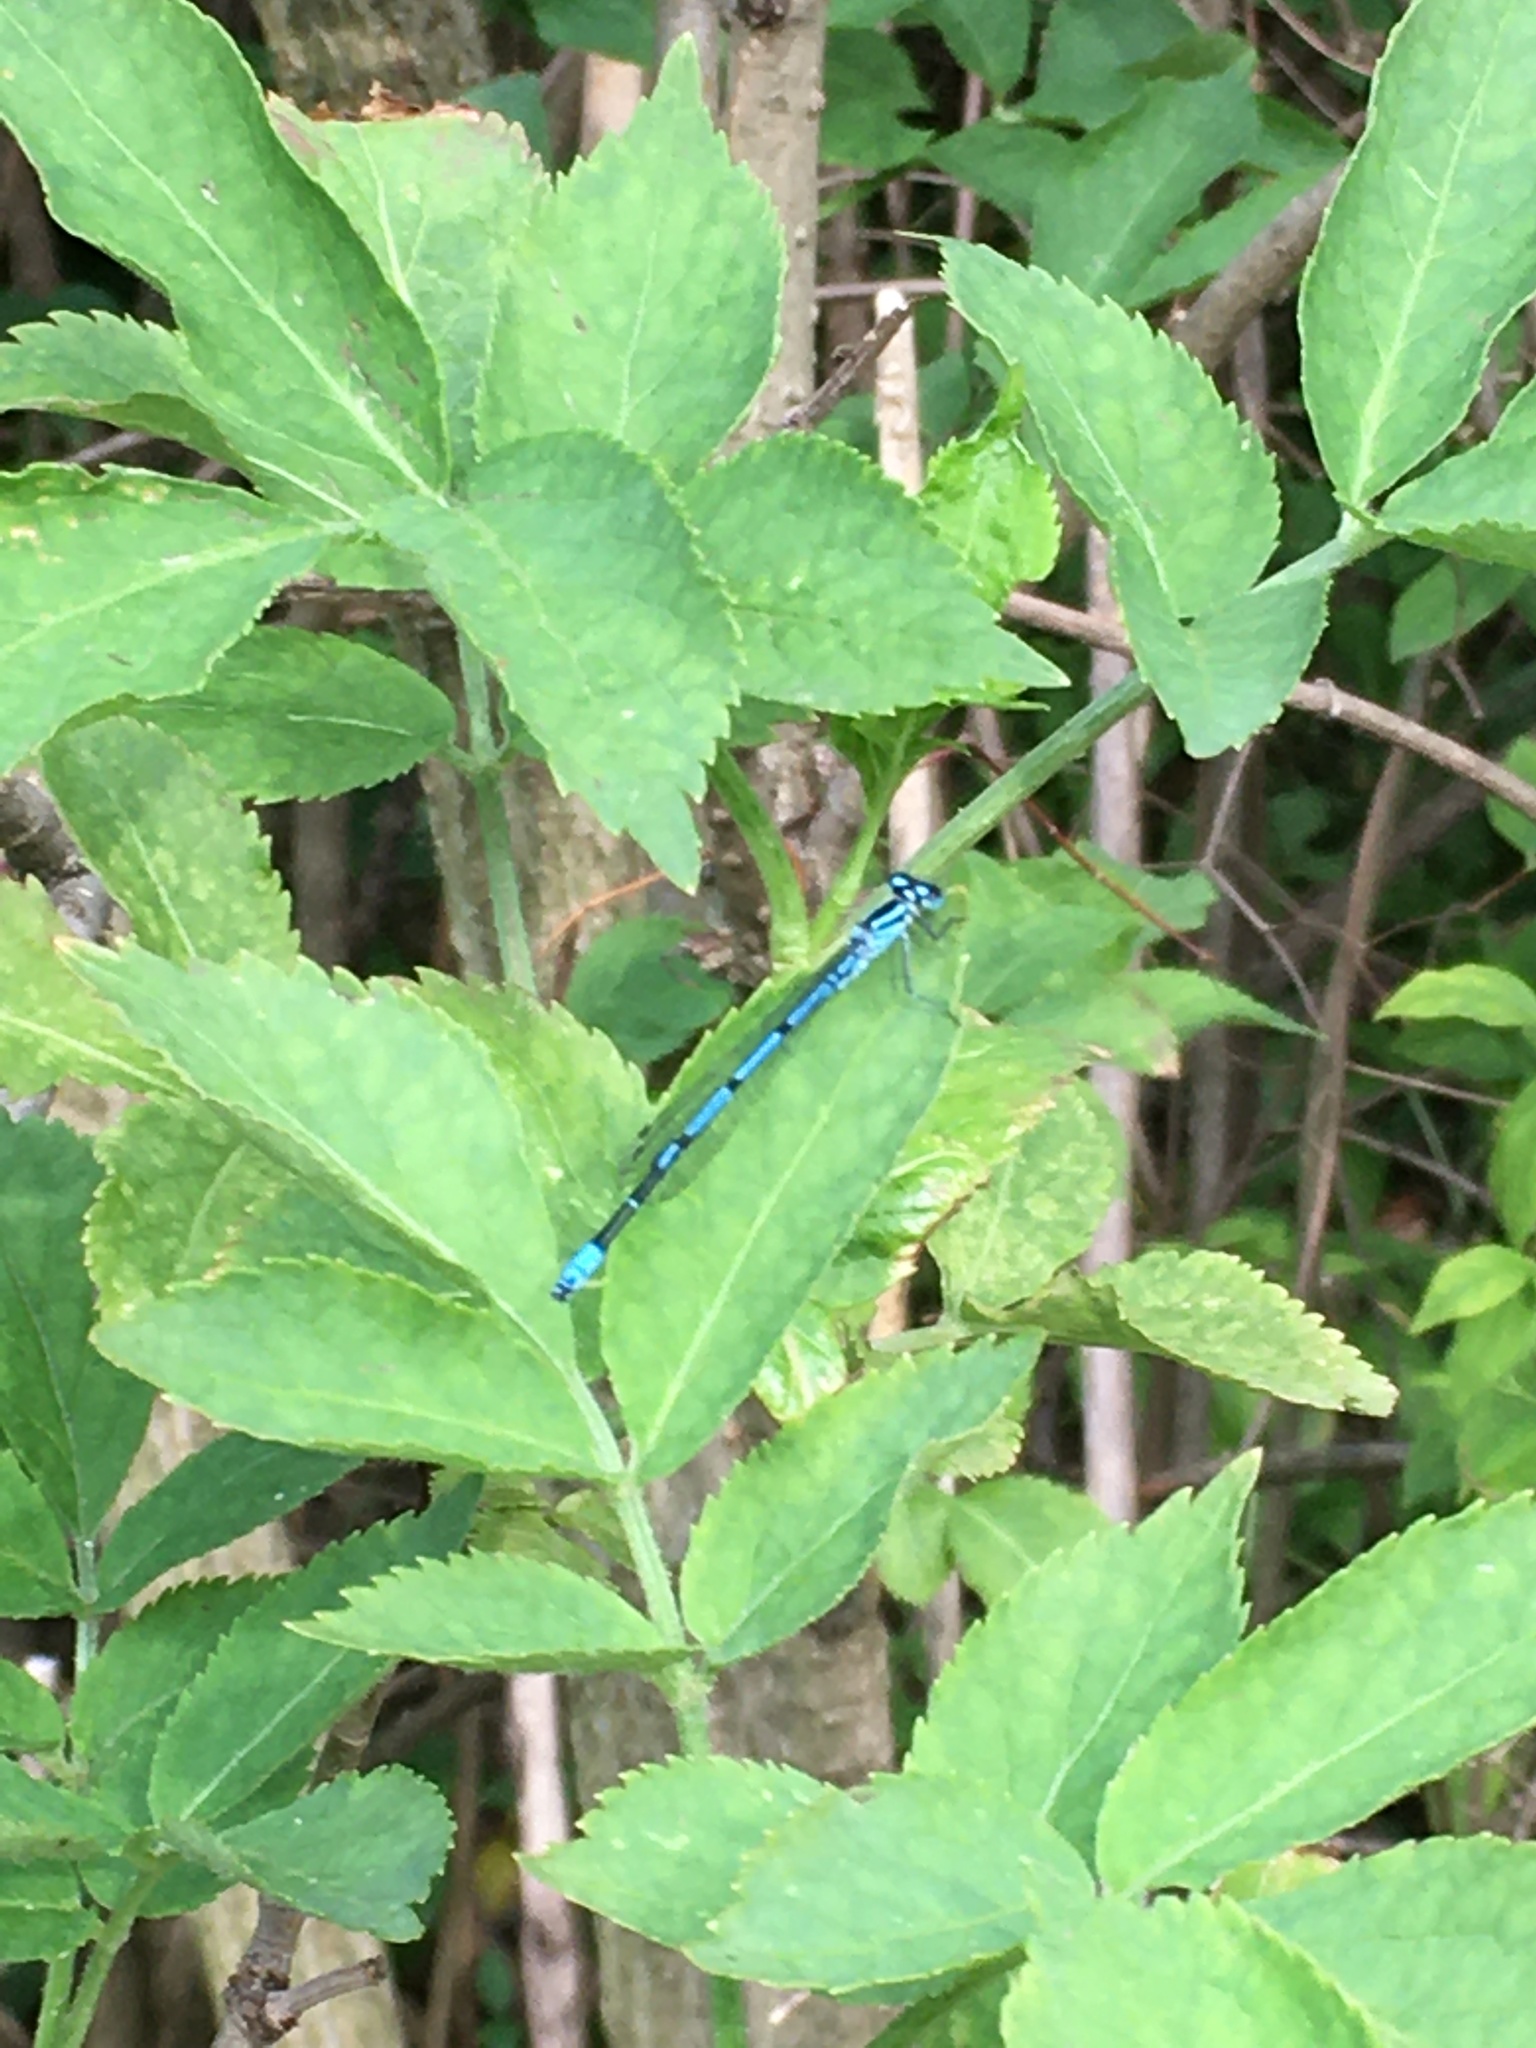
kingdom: Animalia
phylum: Arthropoda
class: Insecta
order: Odonata
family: Coenagrionidae
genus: Coenagrion
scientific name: Coenagrion puella
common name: Azure damselfly
